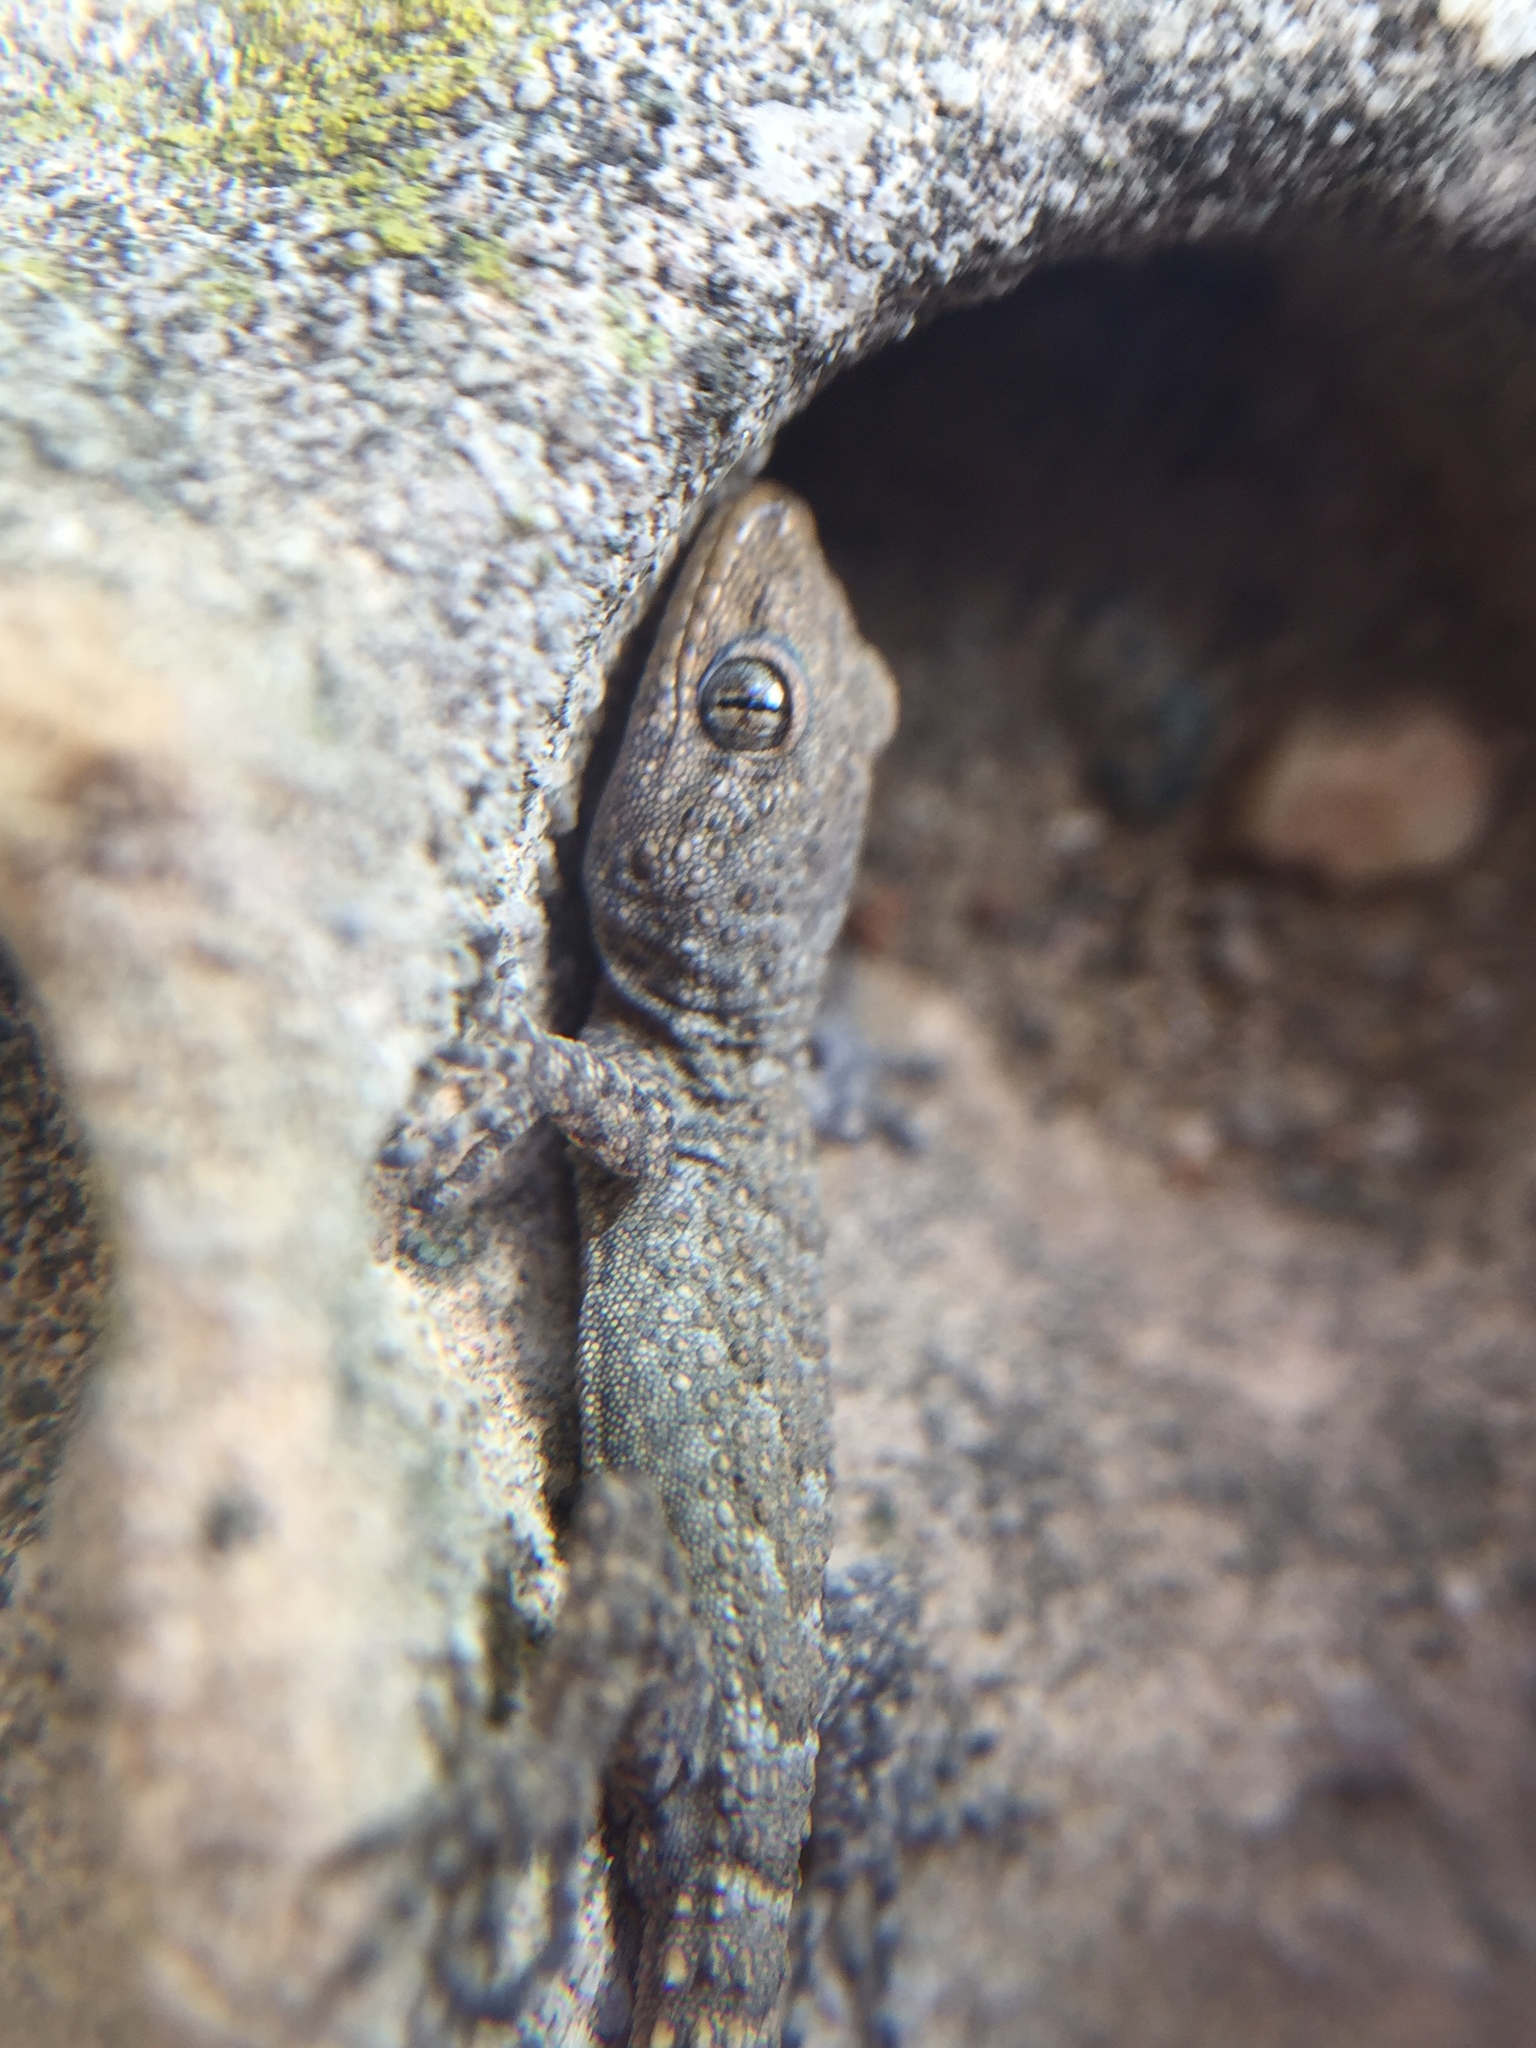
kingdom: Animalia
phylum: Chordata
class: Squamata
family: Gekkonidae
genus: Mediodactylus
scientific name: Mediodactylus kotschyi
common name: Kotschy's gecko
